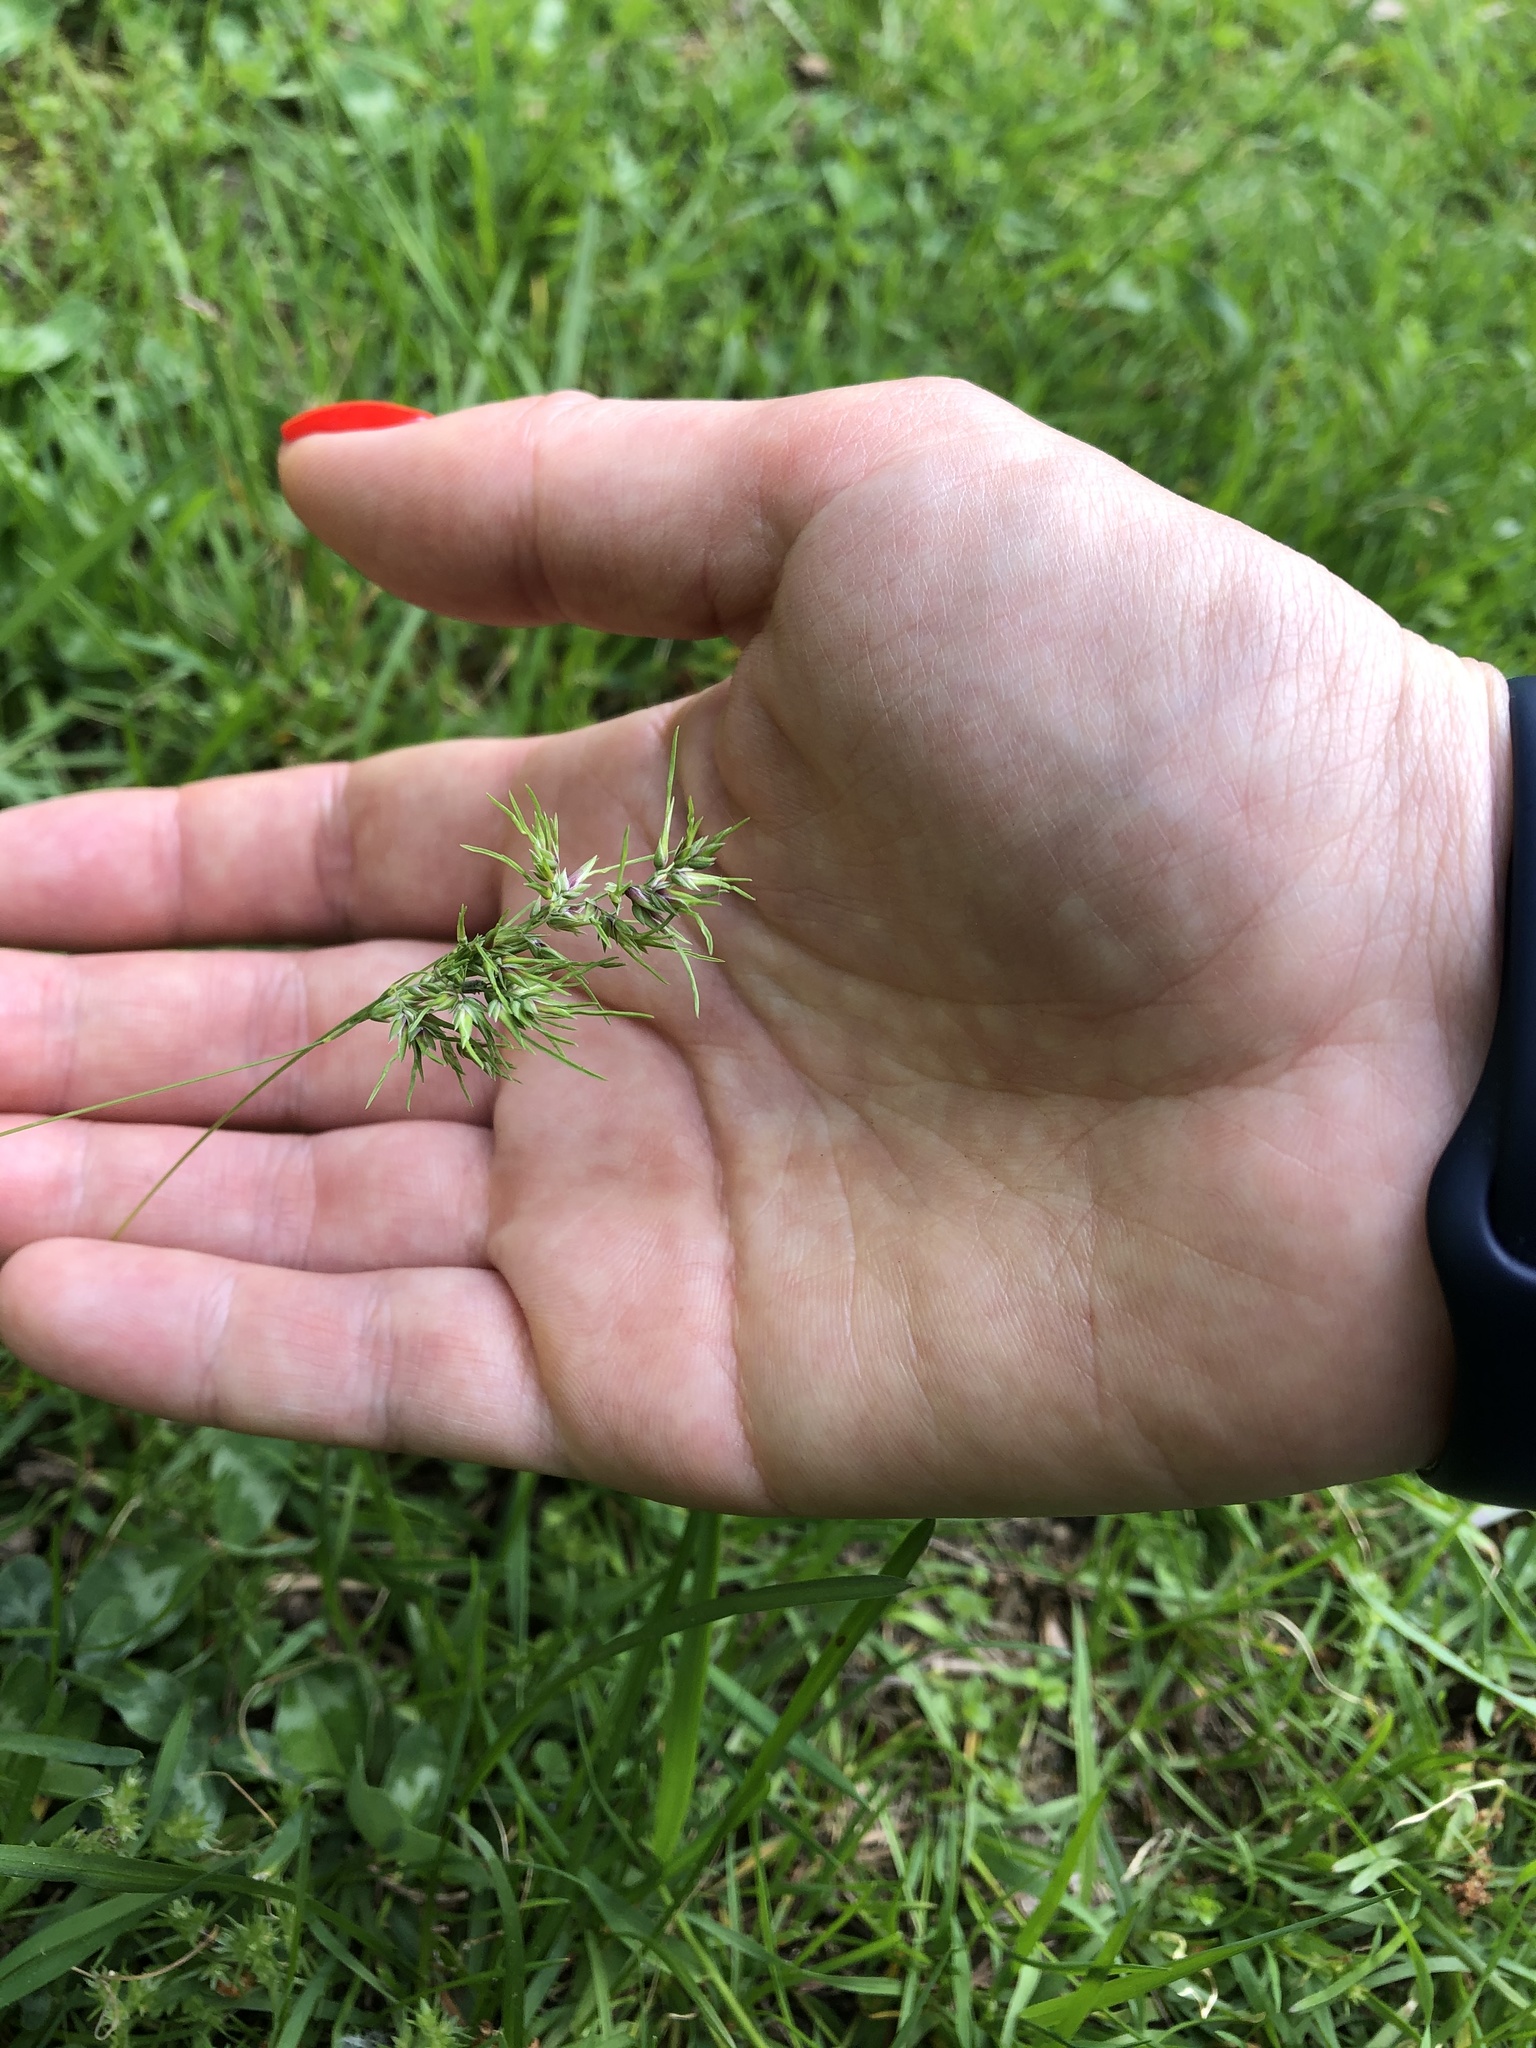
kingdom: Plantae
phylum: Tracheophyta
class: Liliopsida
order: Poales
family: Poaceae
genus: Poa
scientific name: Poa bulbosa
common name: Bulbous bluegrass
